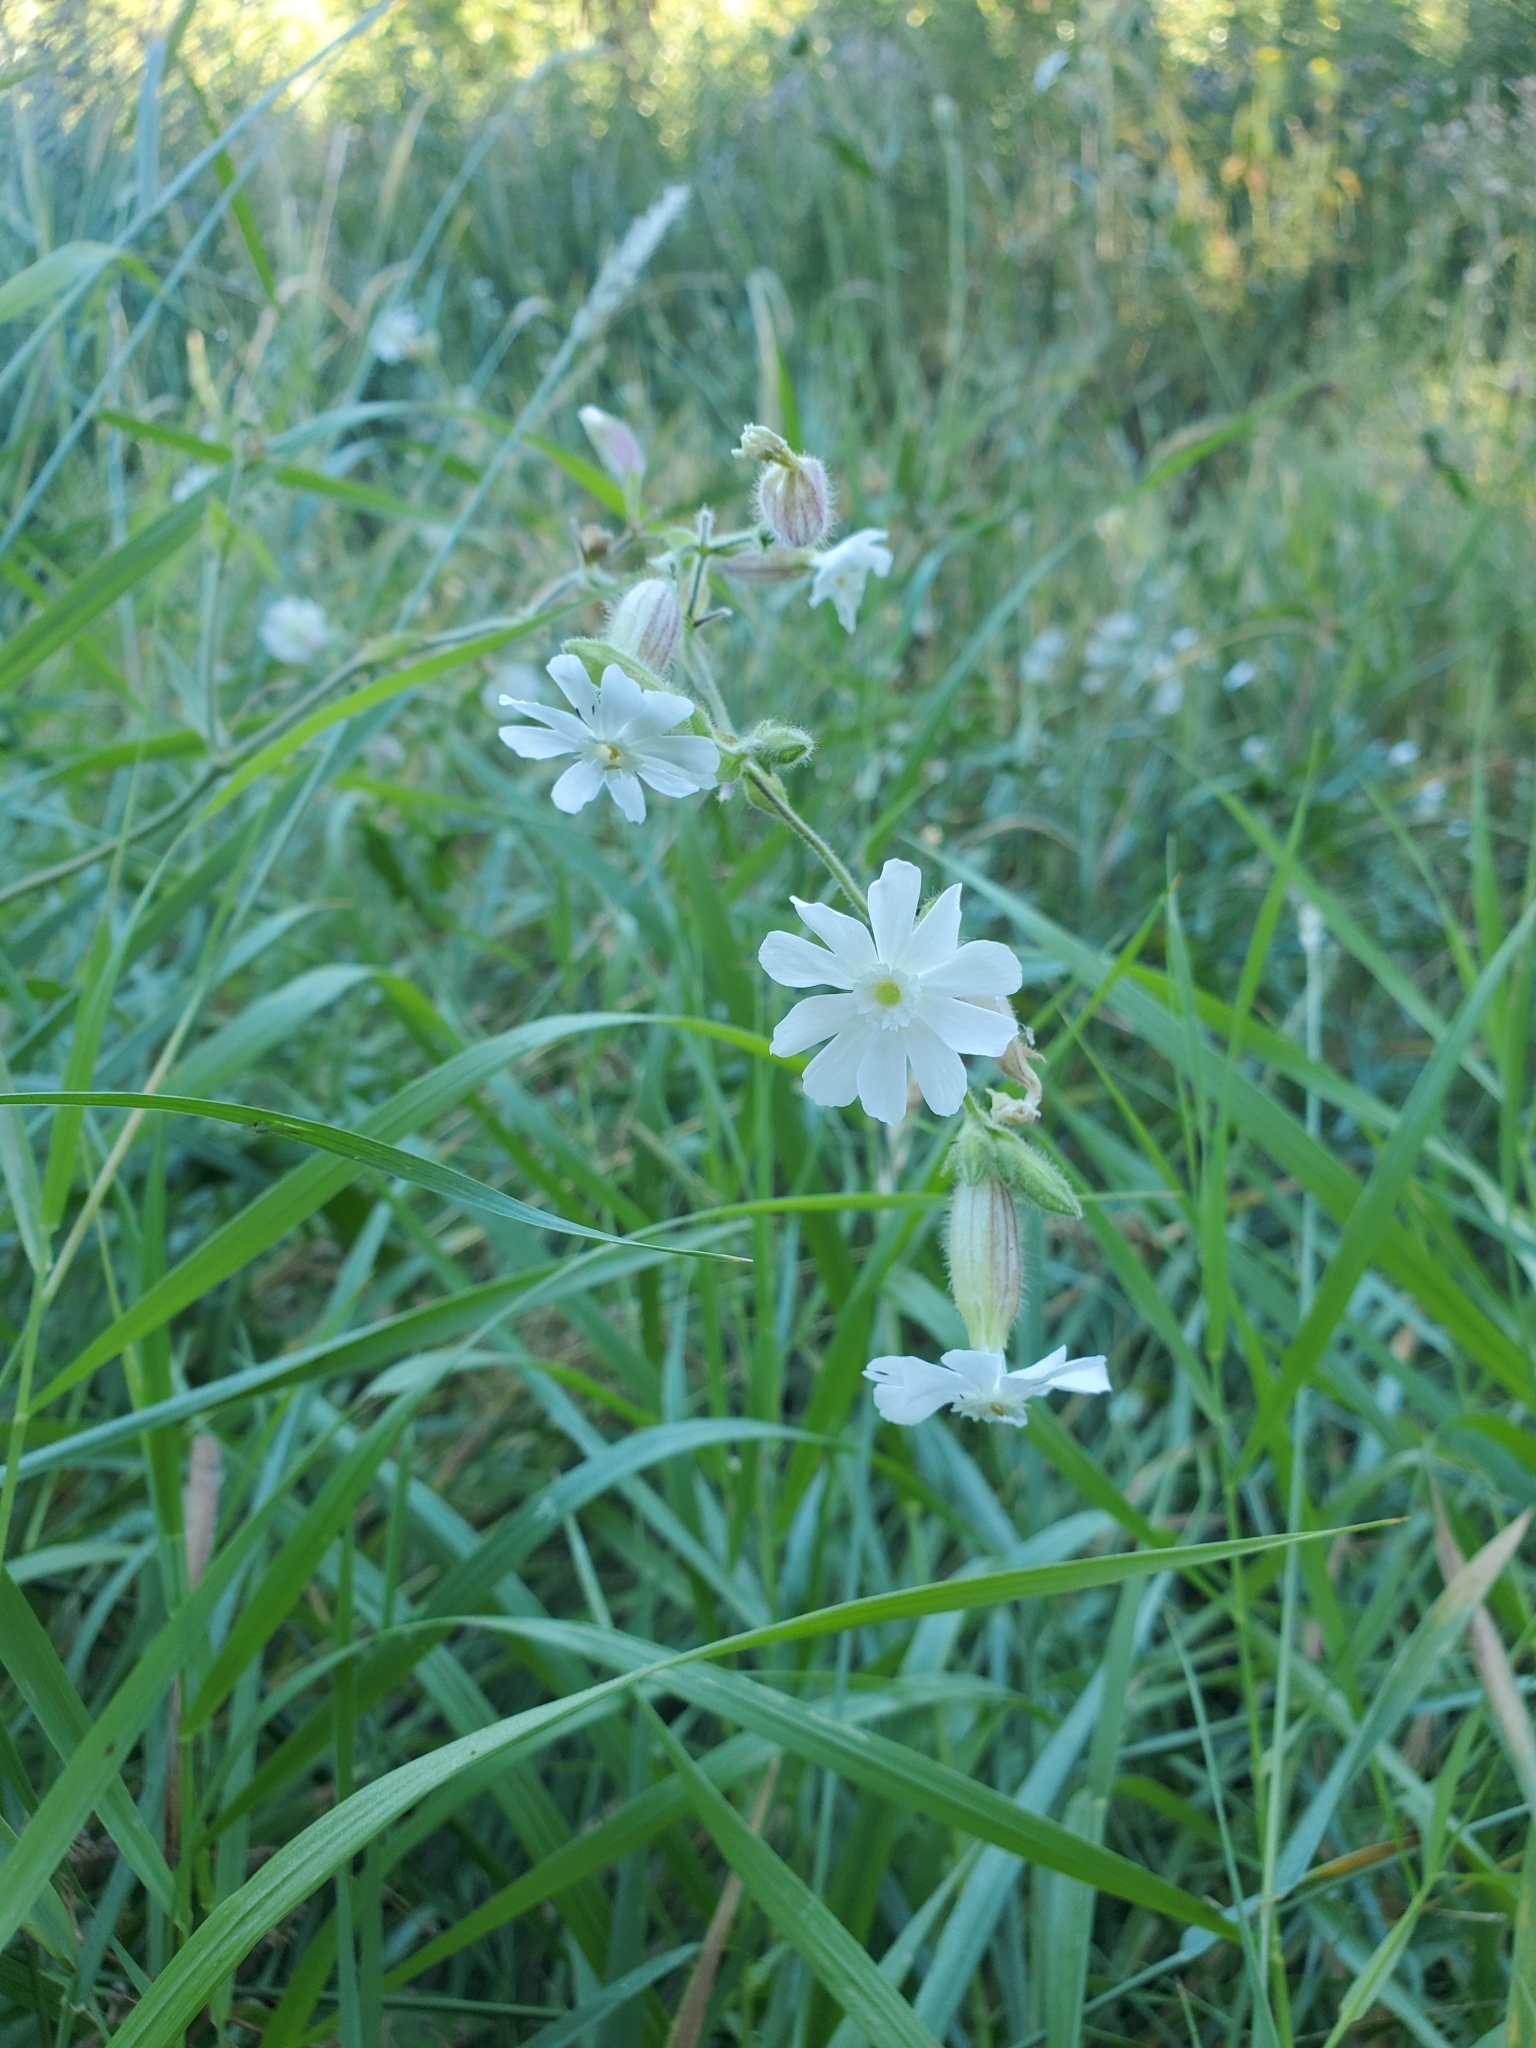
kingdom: Plantae
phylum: Tracheophyta
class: Magnoliopsida
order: Caryophyllales
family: Caryophyllaceae
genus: Silene
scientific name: Silene latifolia
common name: White campion
